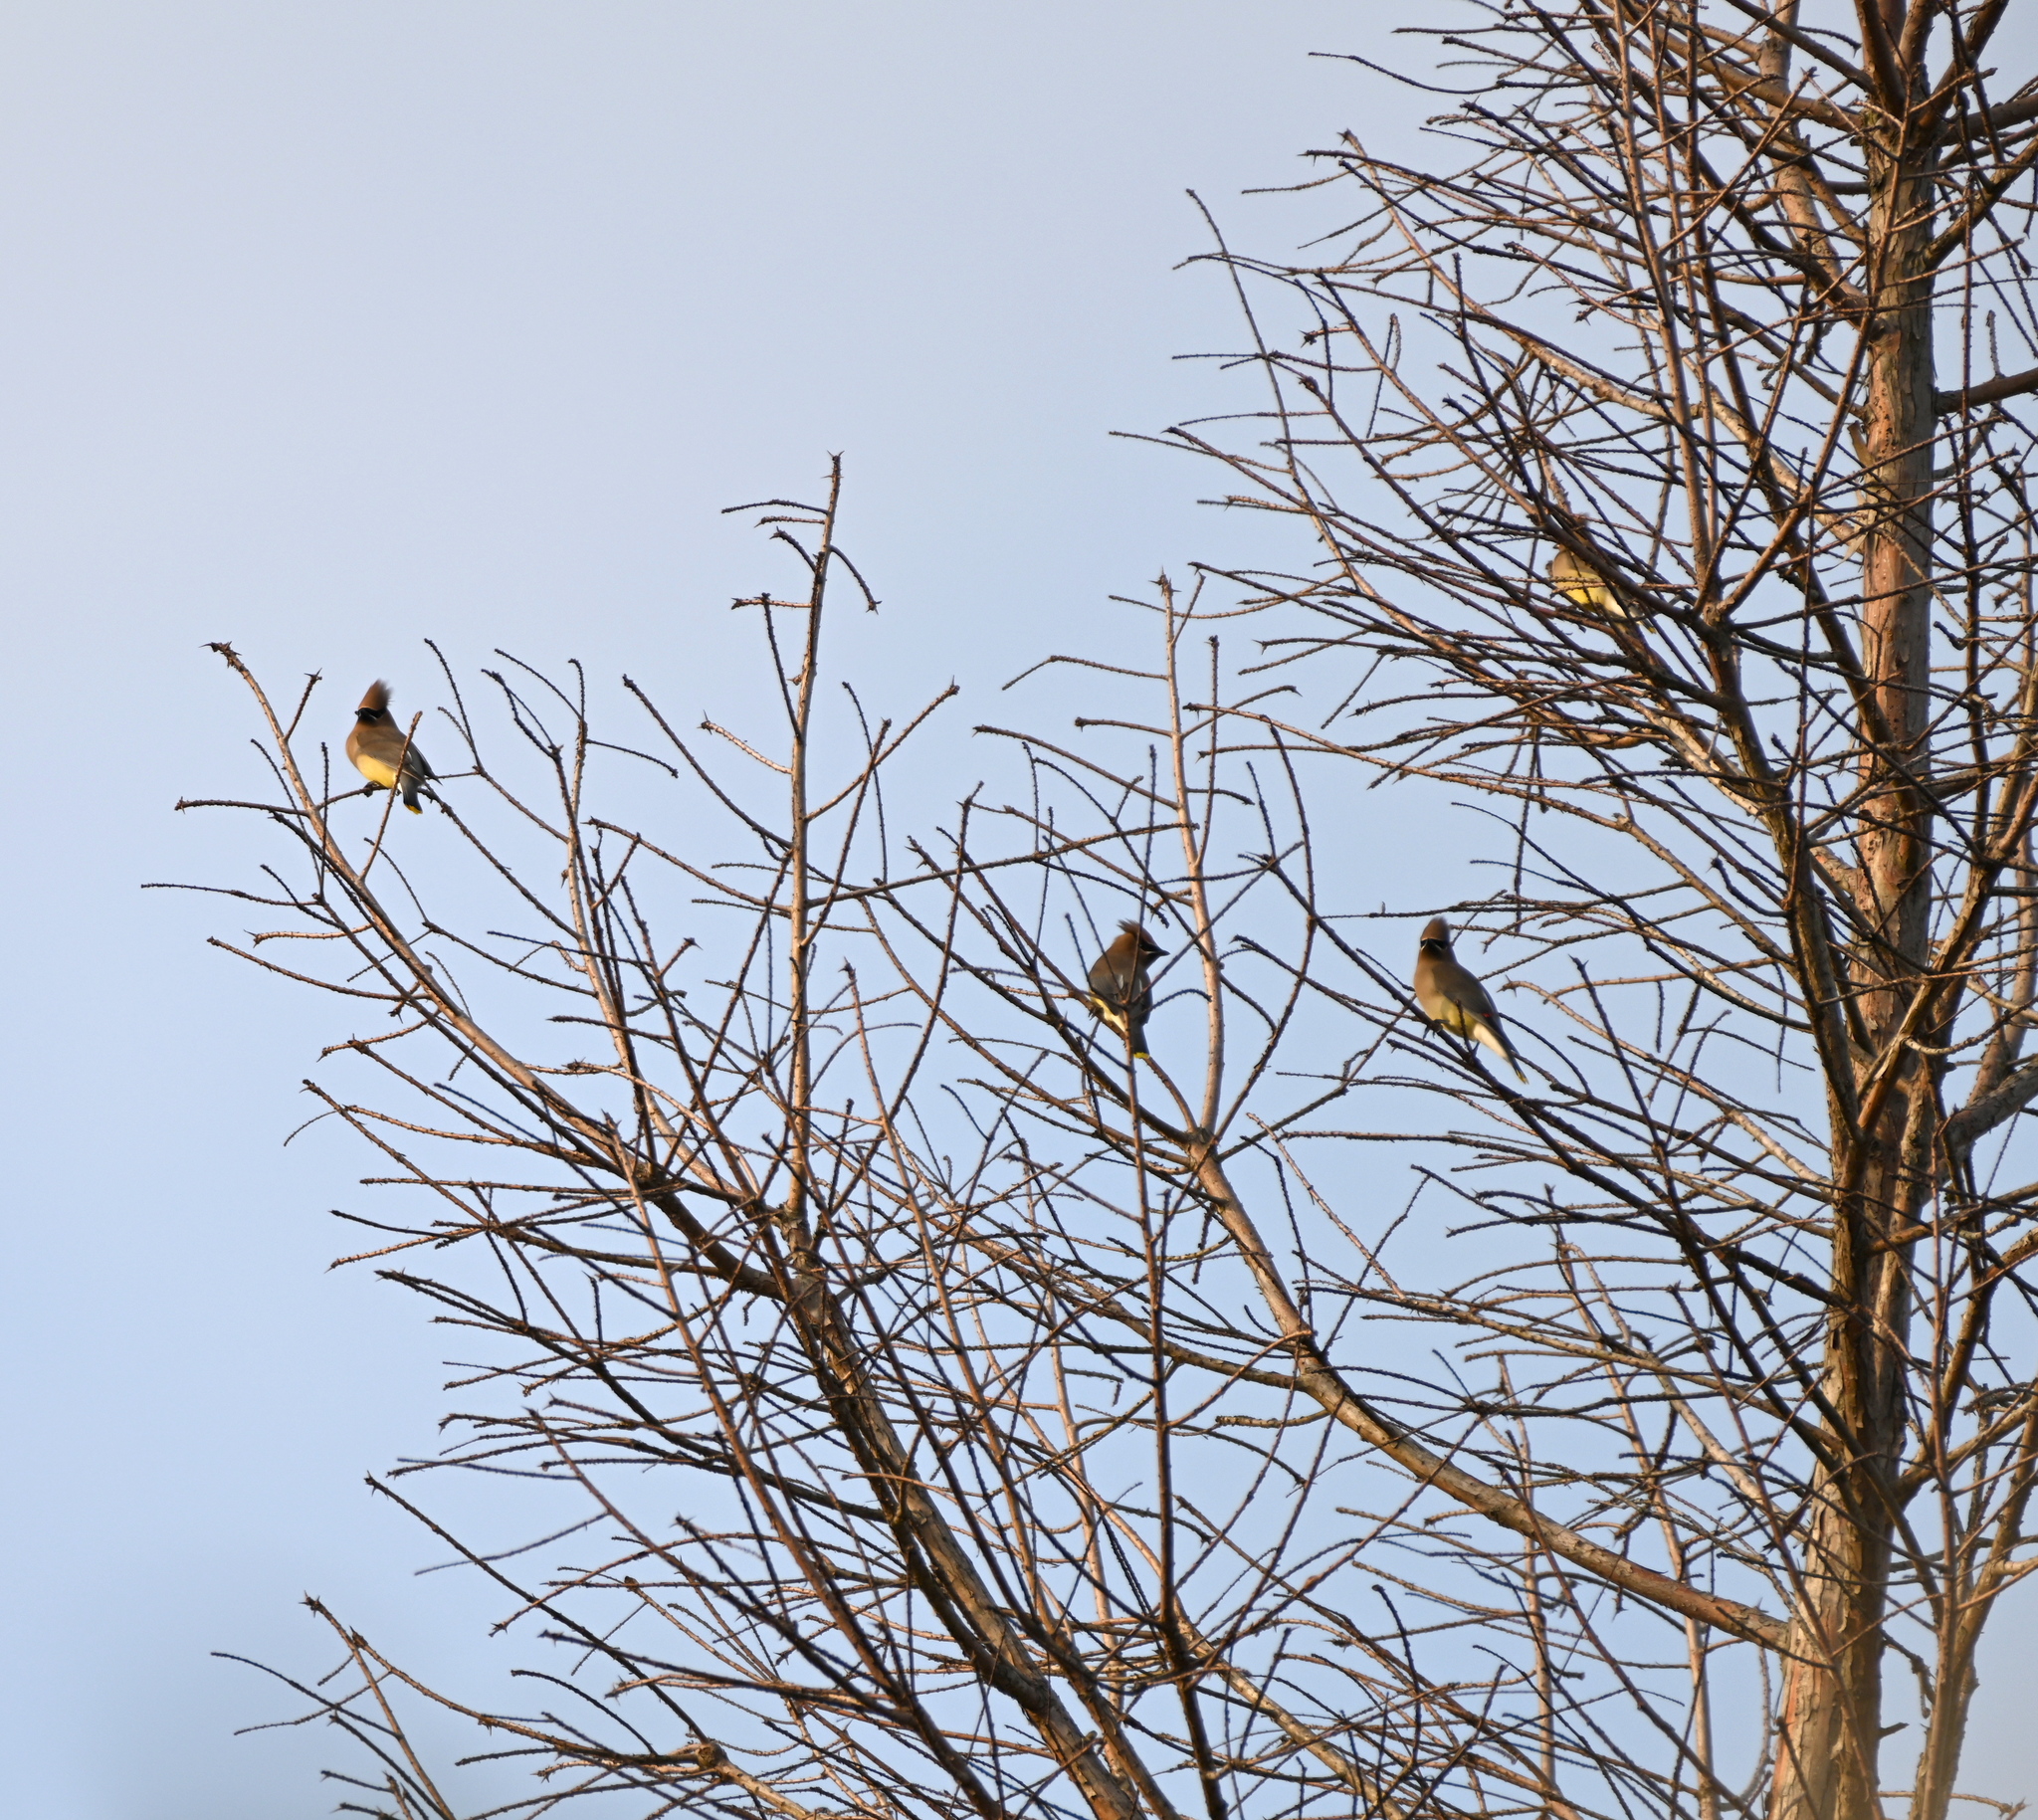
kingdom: Animalia
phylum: Chordata
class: Aves
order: Passeriformes
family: Bombycillidae
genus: Bombycilla
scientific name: Bombycilla cedrorum
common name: Cedar waxwing
